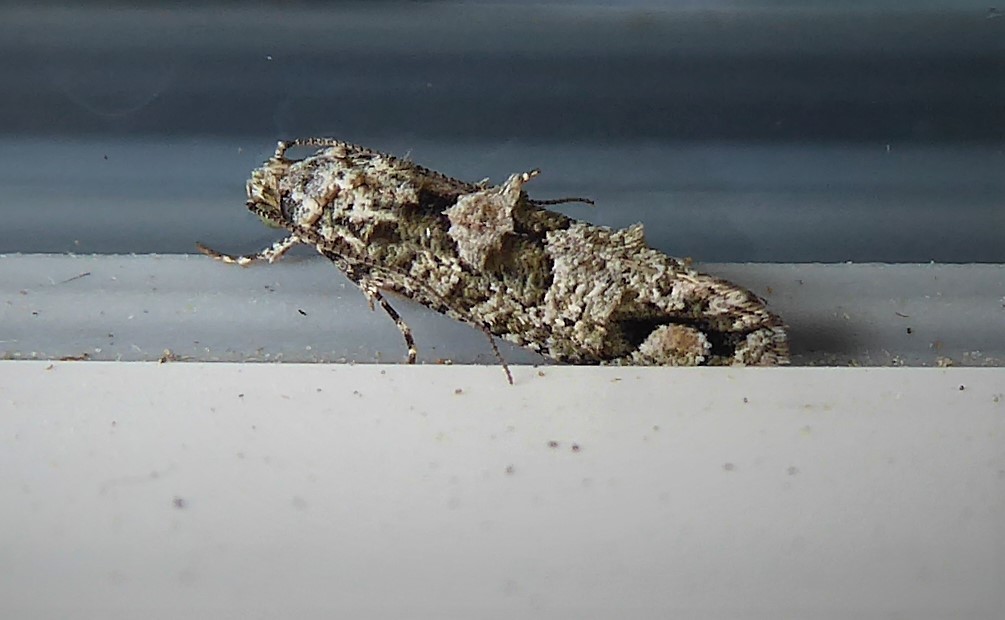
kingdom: Animalia
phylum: Arthropoda
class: Insecta
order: Lepidoptera
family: Tineidae
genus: Lysiphragma
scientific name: Lysiphragma howesii
